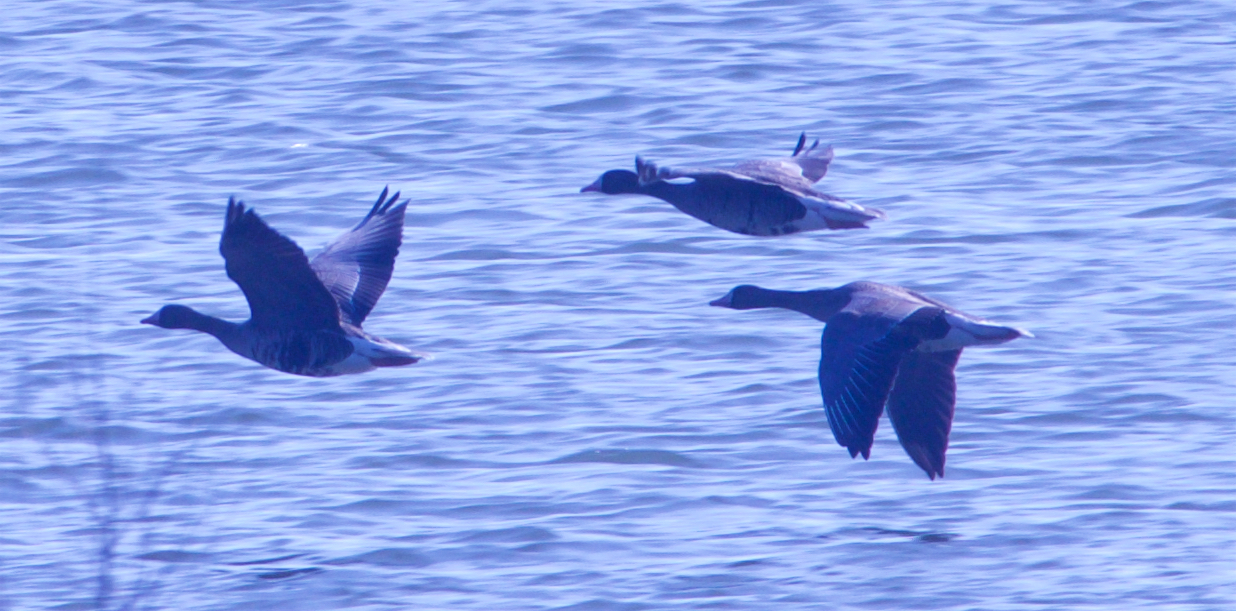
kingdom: Animalia
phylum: Chordata
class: Aves
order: Anseriformes
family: Anatidae
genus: Anser
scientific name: Anser albifrons
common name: Greater white-fronted goose
